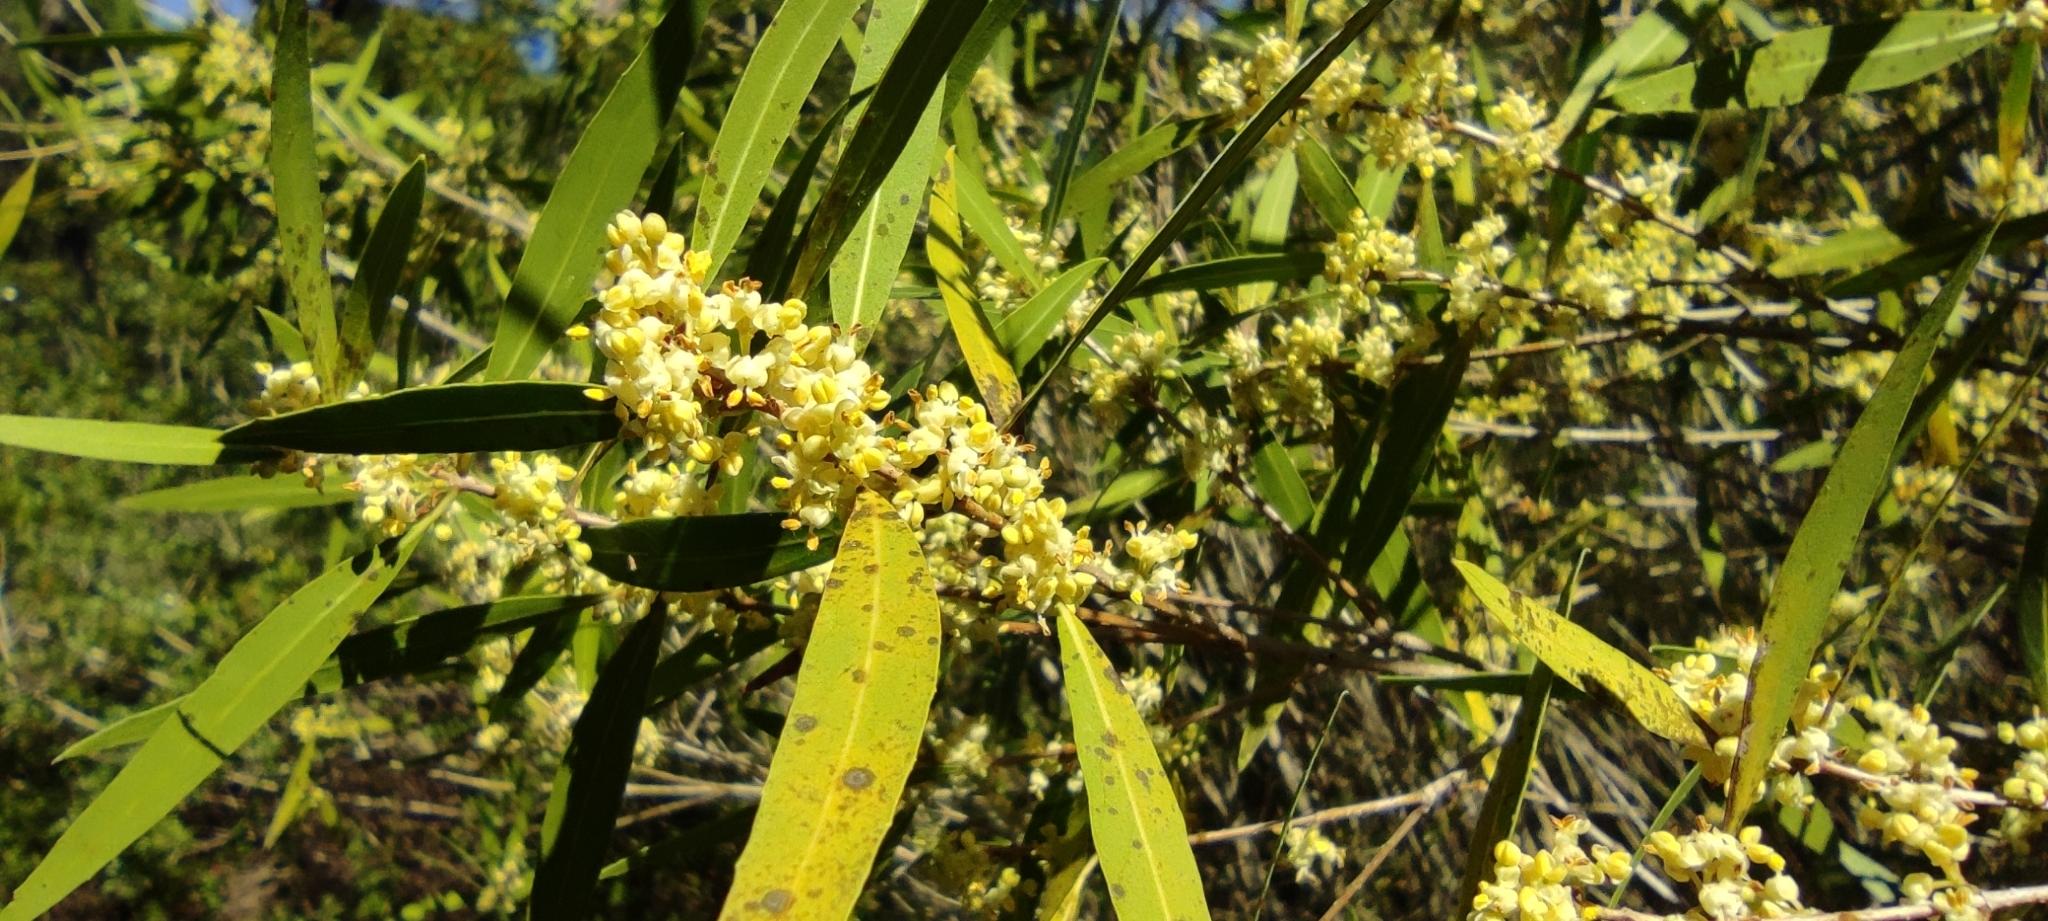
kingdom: Plantae
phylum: Tracheophyta
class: Magnoliopsida
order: Lamiales
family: Oleaceae
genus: Phillyrea
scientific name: Phillyrea angustifolia
